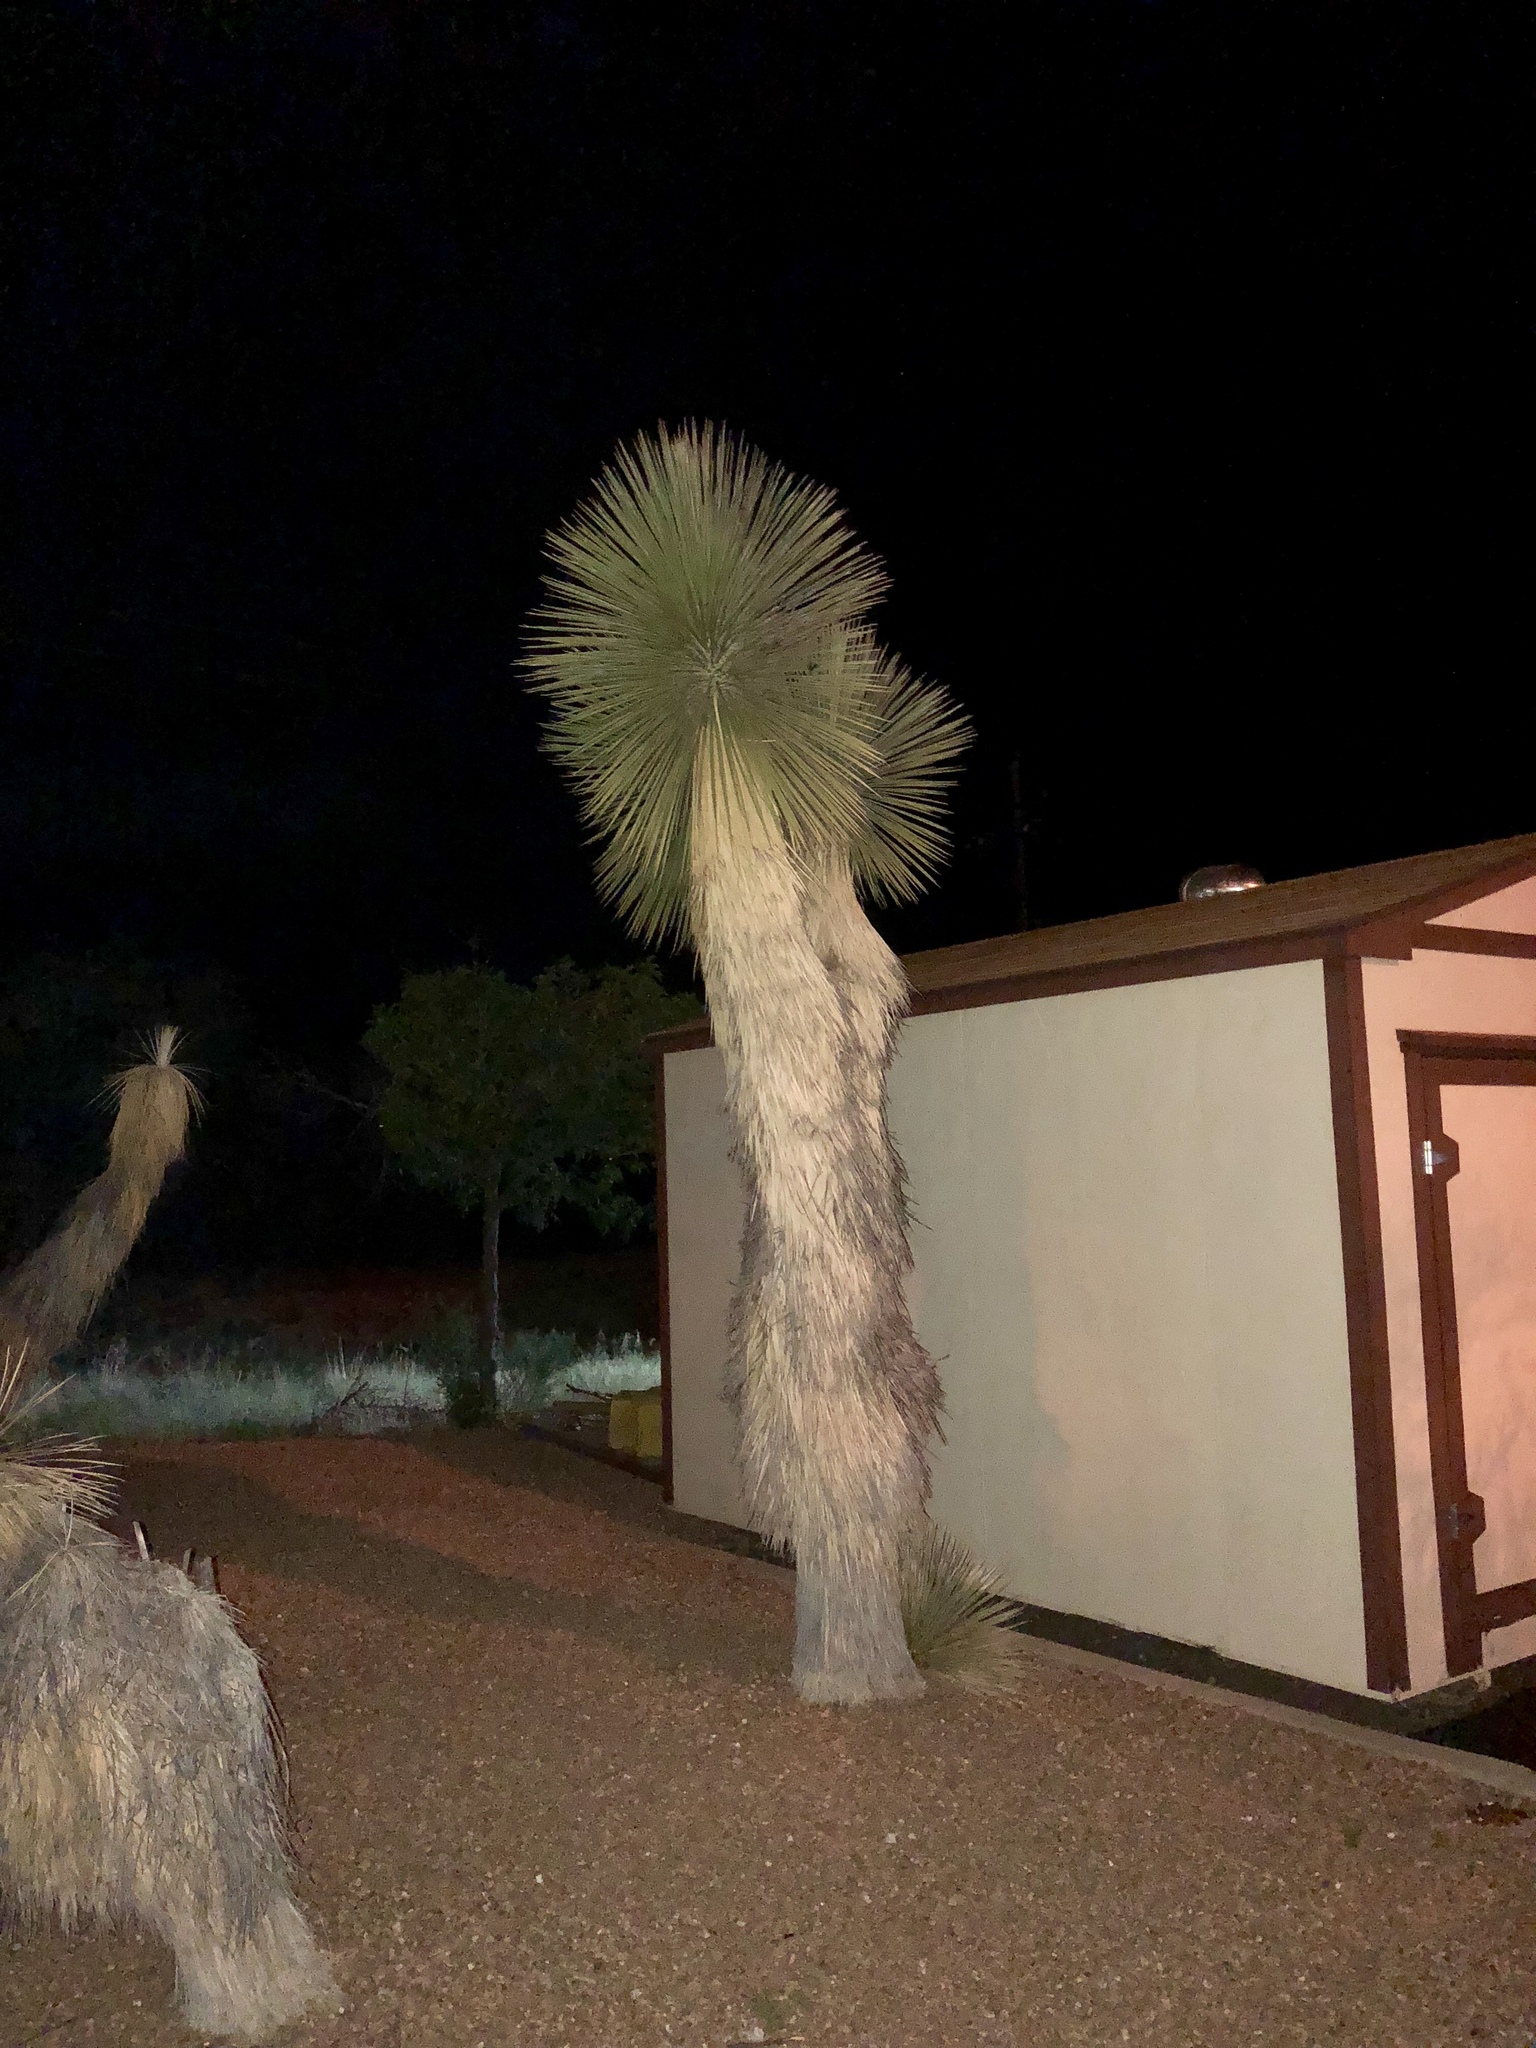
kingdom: Plantae
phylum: Tracheophyta
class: Liliopsida
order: Asparagales
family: Asparagaceae
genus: Yucca
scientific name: Yucca elata
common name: Palmella
